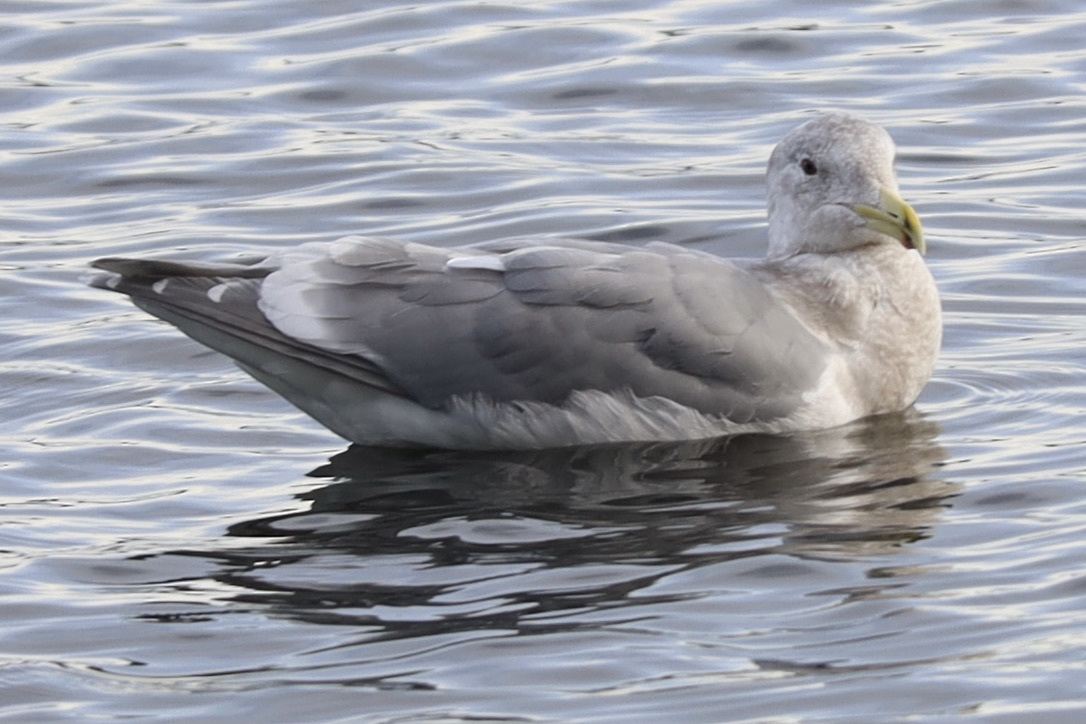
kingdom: Animalia
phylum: Chordata
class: Aves
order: Charadriiformes
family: Laridae
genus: Larus
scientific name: Larus
